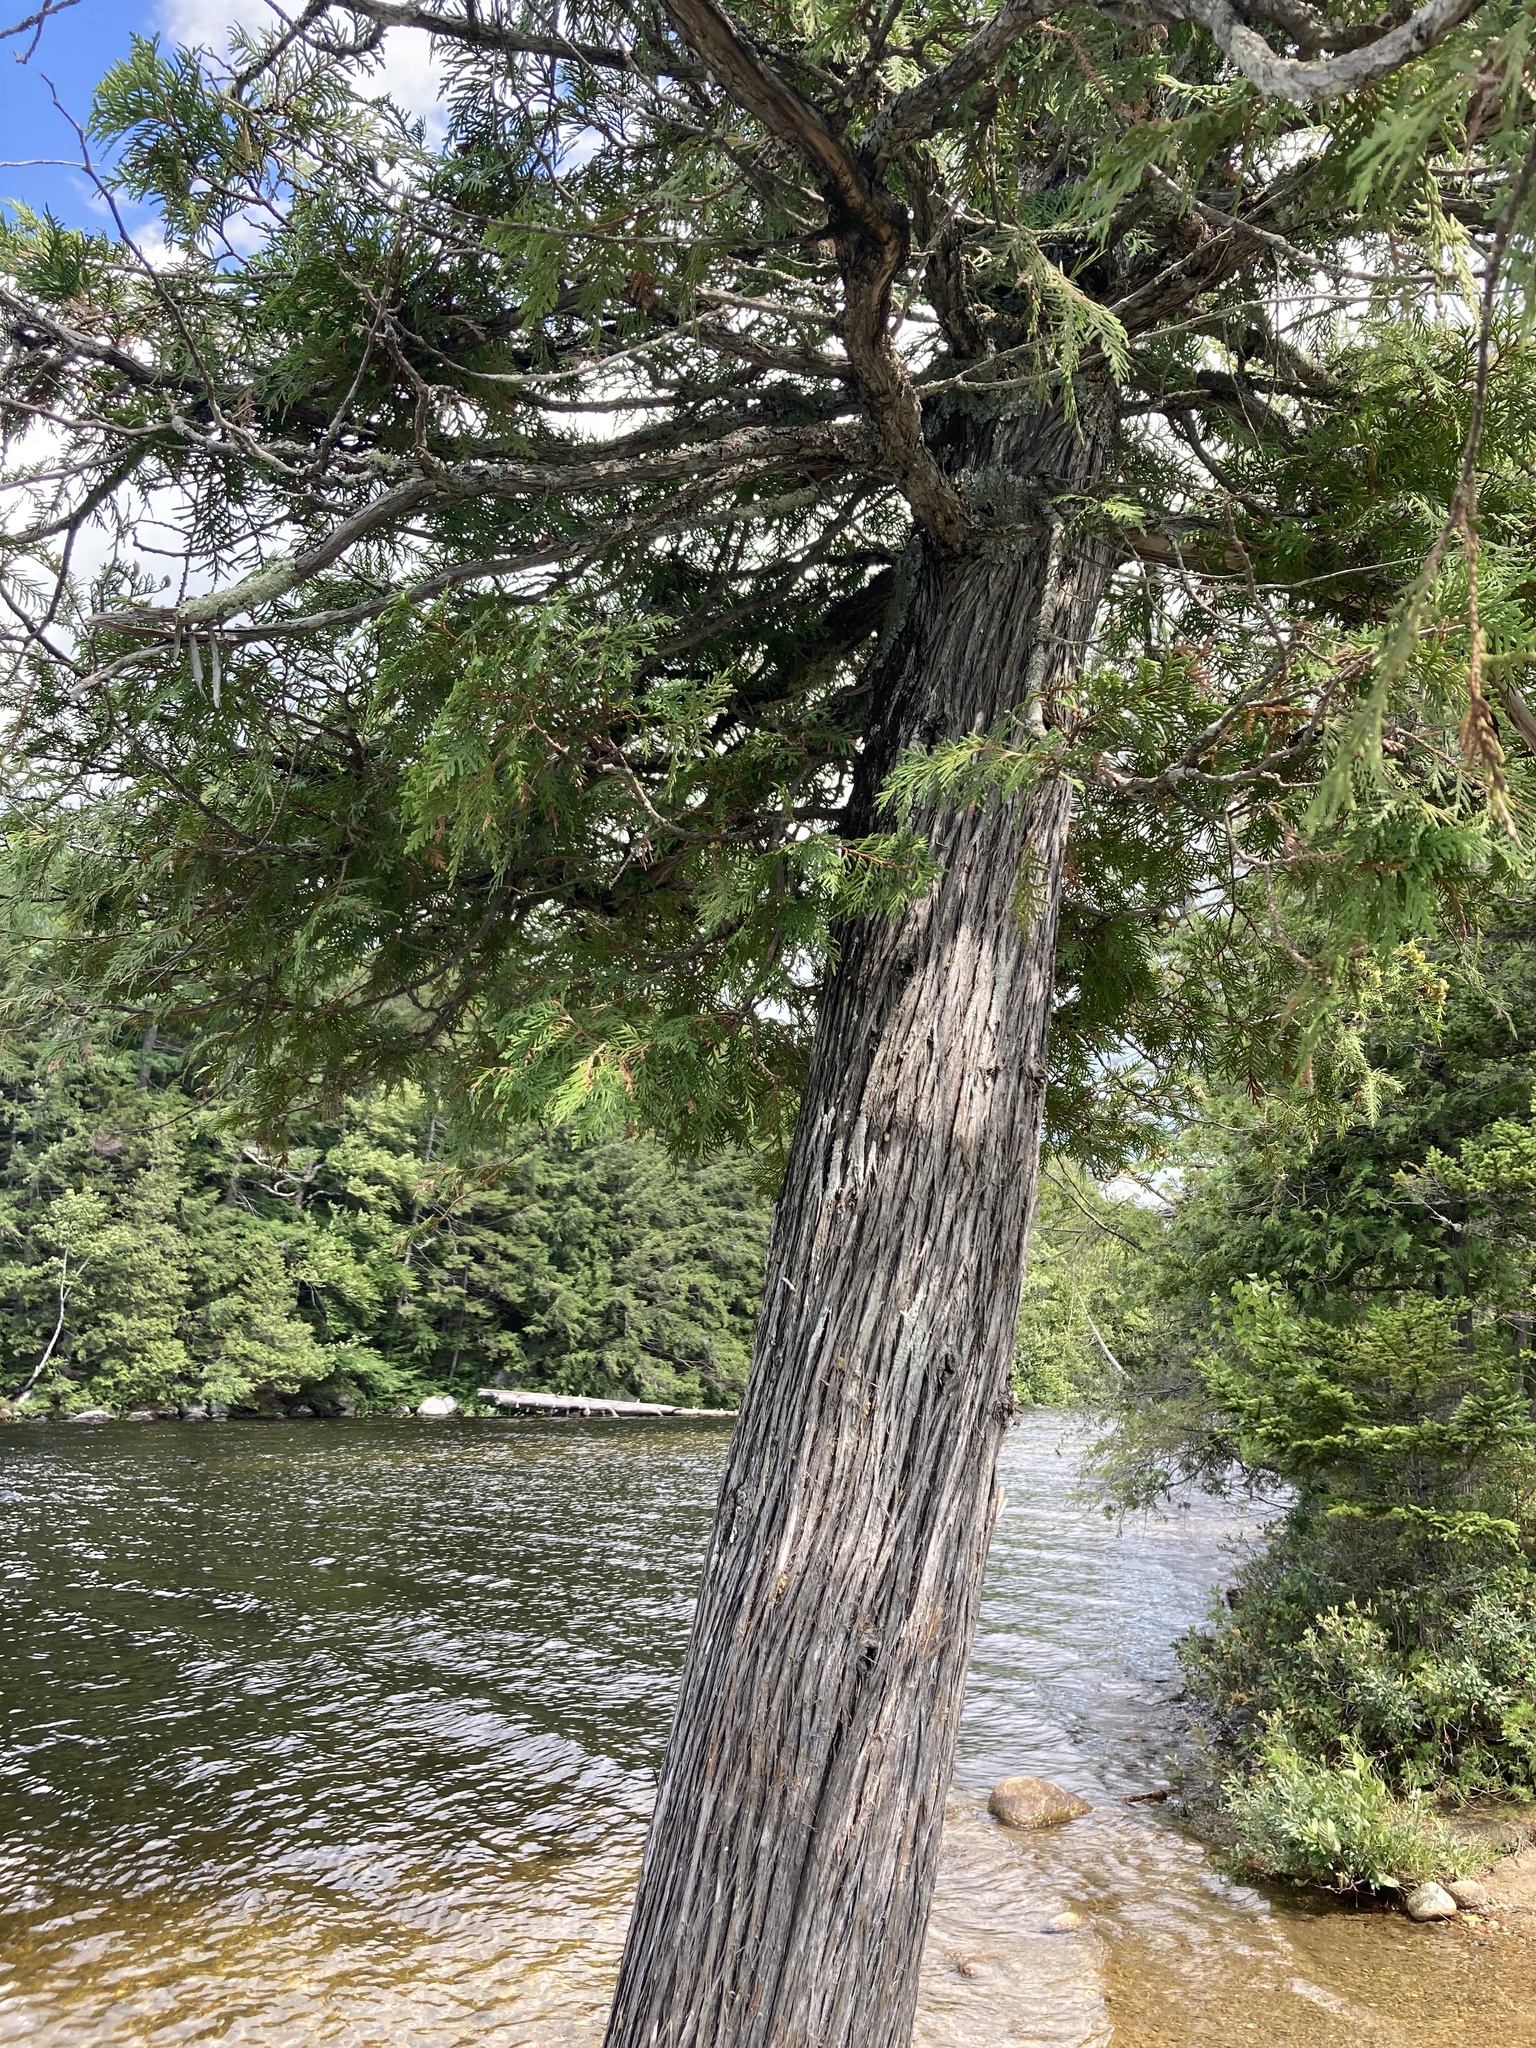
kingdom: Plantae
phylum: Tracheophyta
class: Pinopsida
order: Pinales
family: Cupressaceae
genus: Thuja
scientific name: Thuja occidentalis
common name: Northern white-cedar
